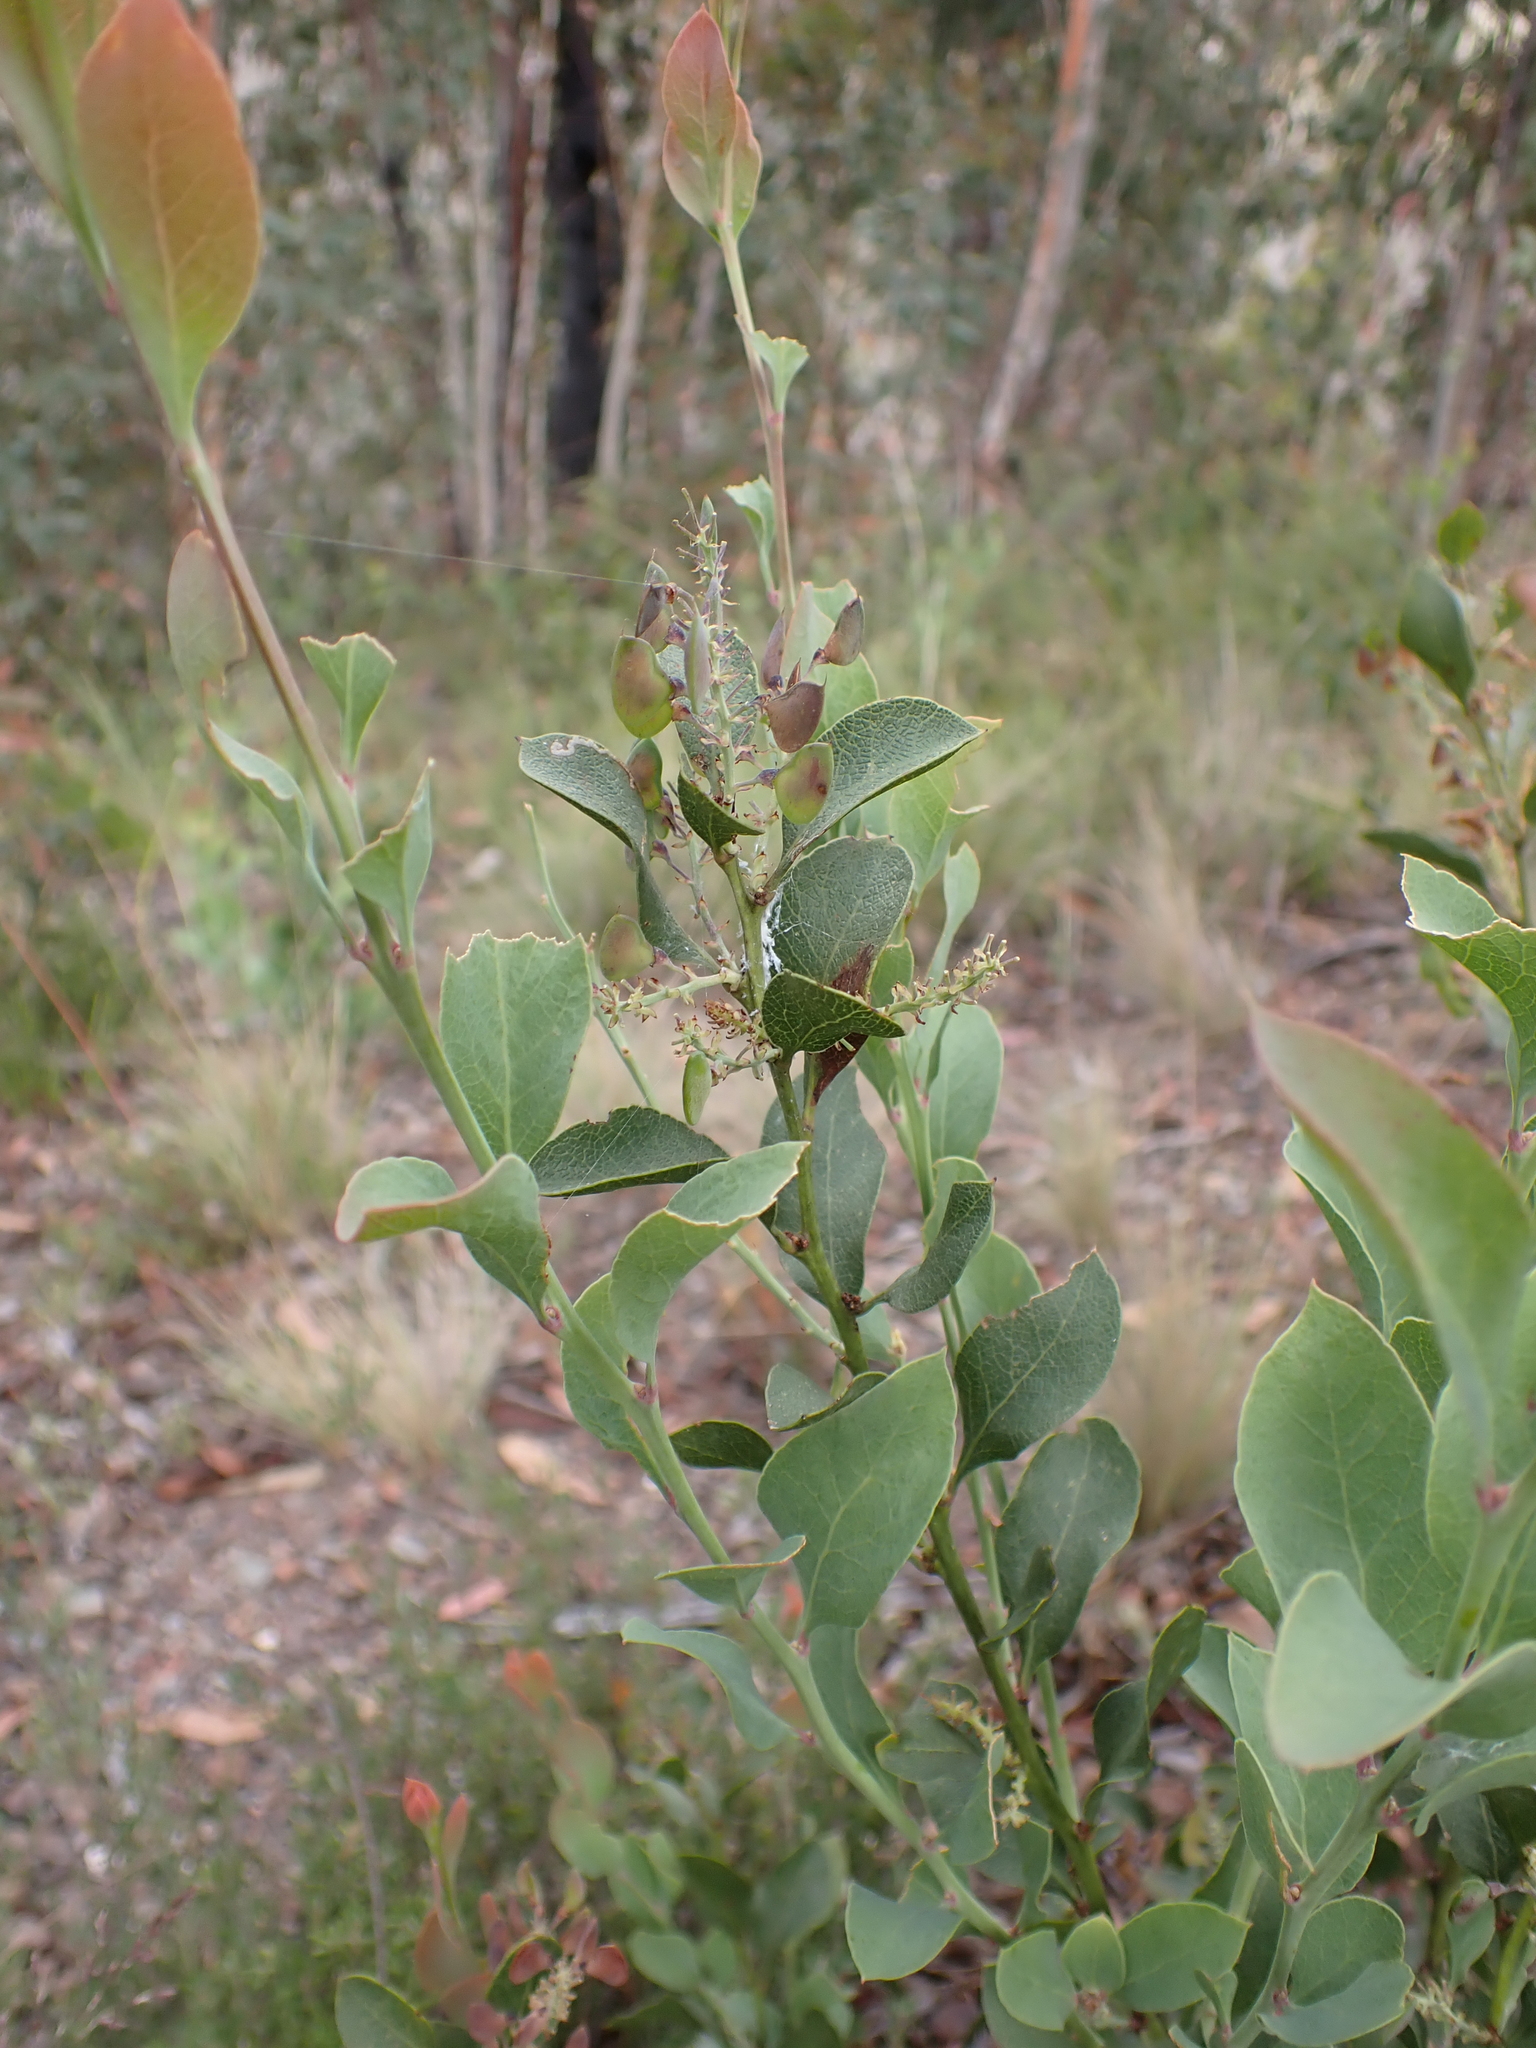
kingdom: Plantae
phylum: Tracheophyta
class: Magnoliopsida
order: Fabales
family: Fabaceae
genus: Daviesia
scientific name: Daviesia latifolia
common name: Hop bitter-pea
